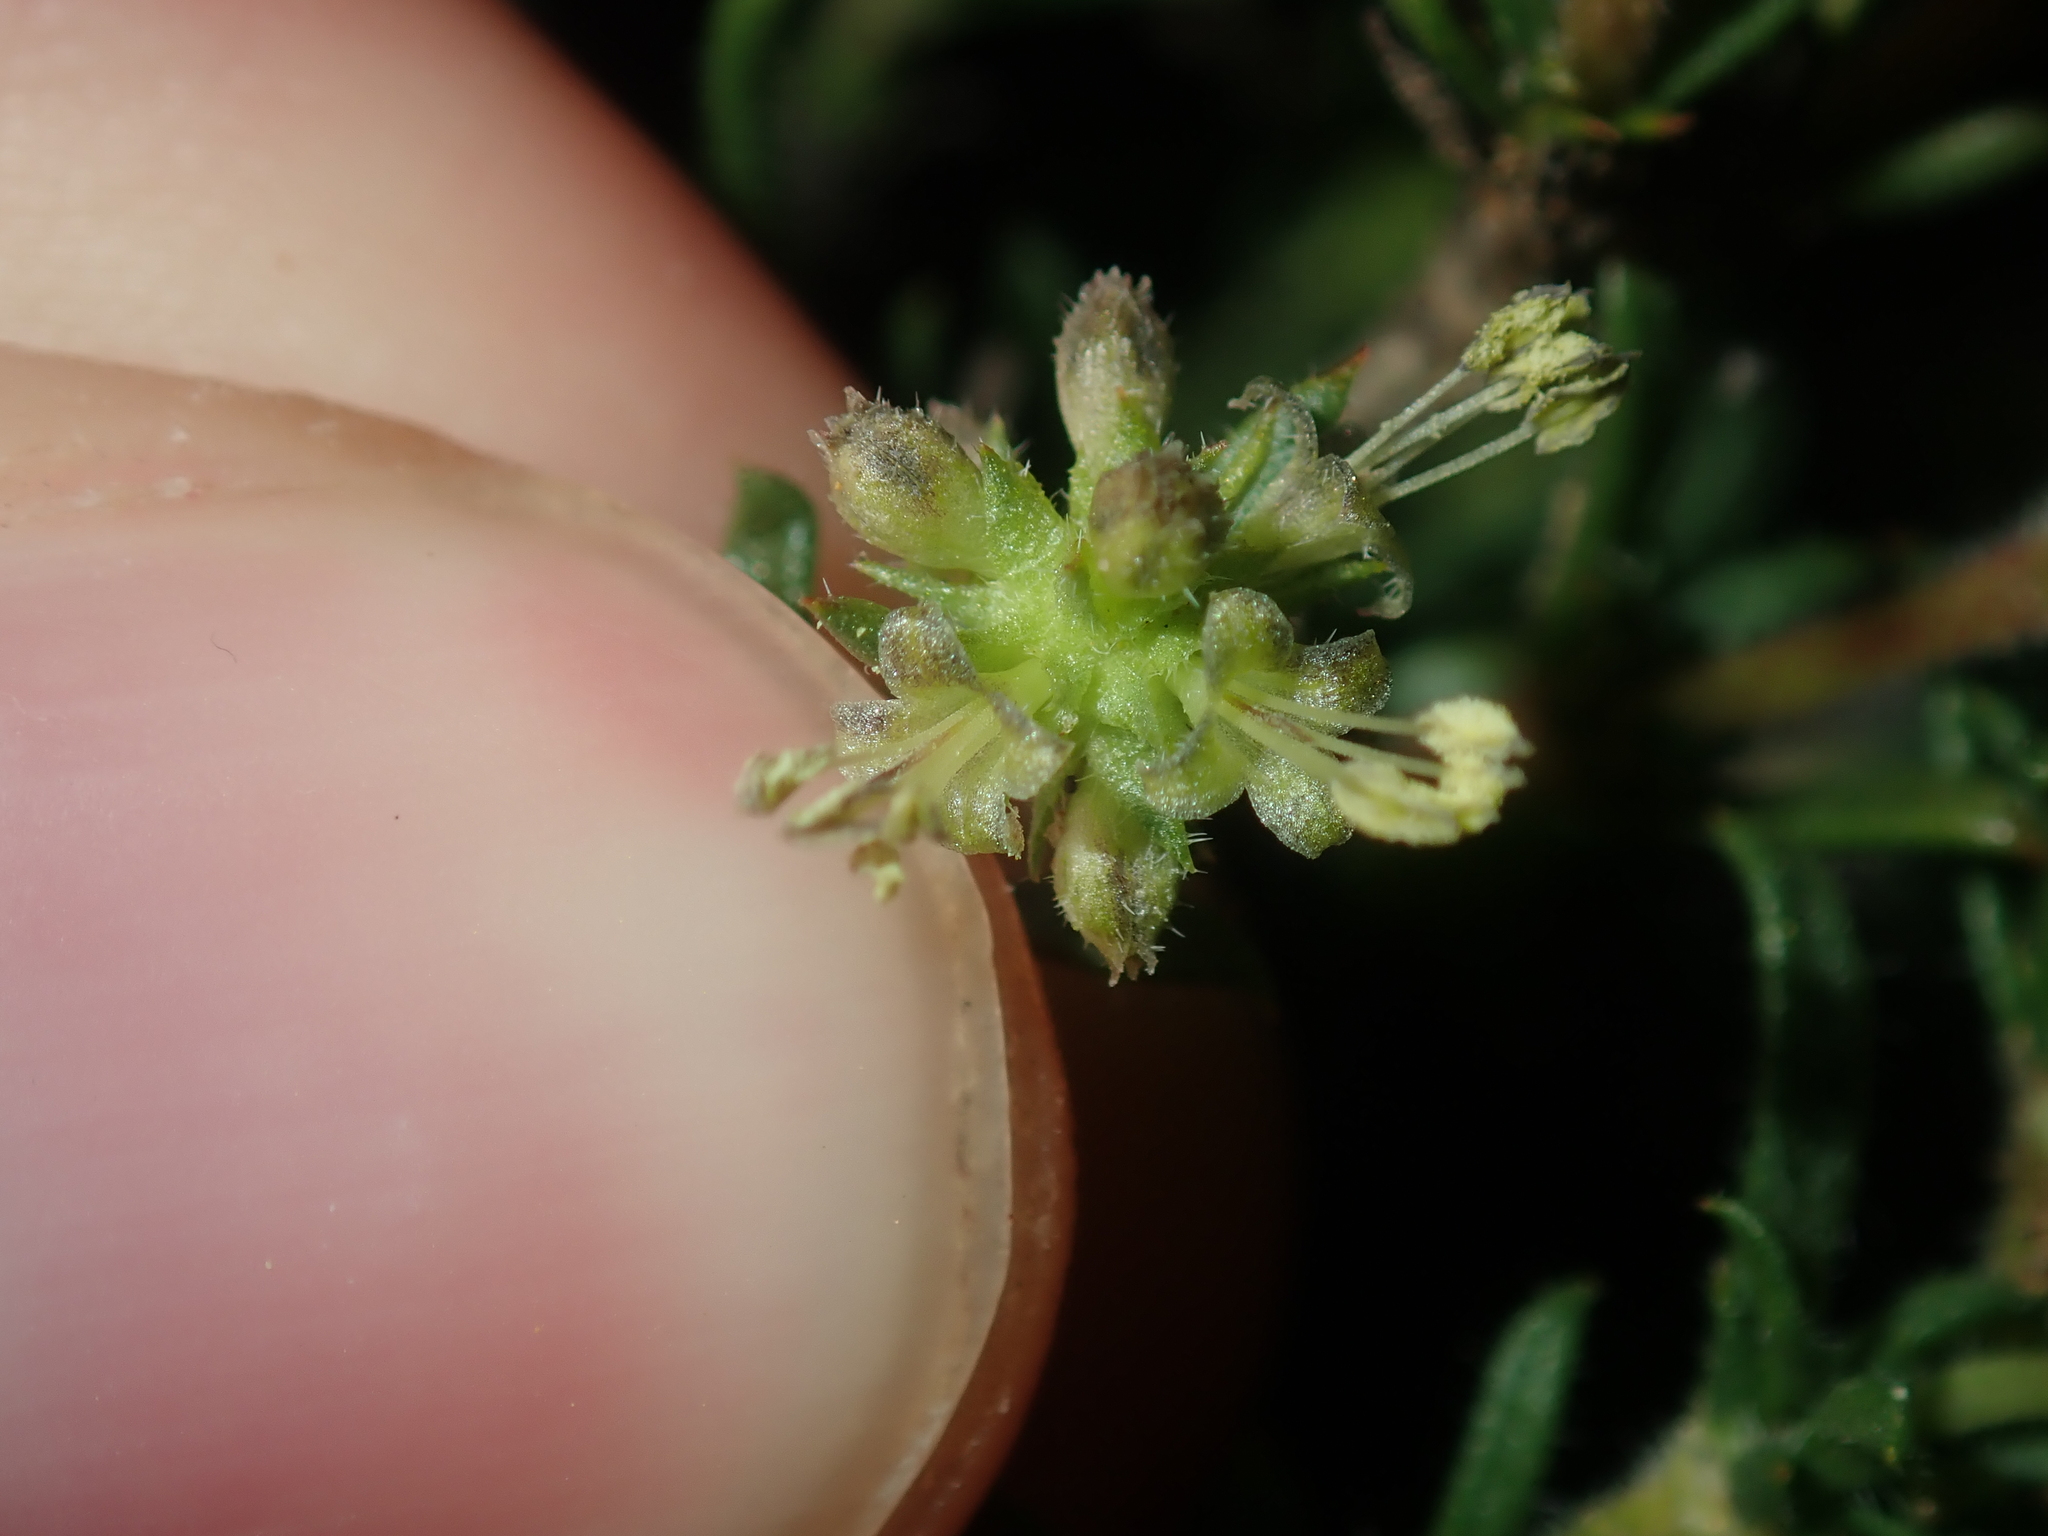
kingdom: Plantae
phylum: Tracheophyta
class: Magnoliopsida
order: Gentianales
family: Rubiaceae
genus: Opercularia
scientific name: Opercularia spermacocea
